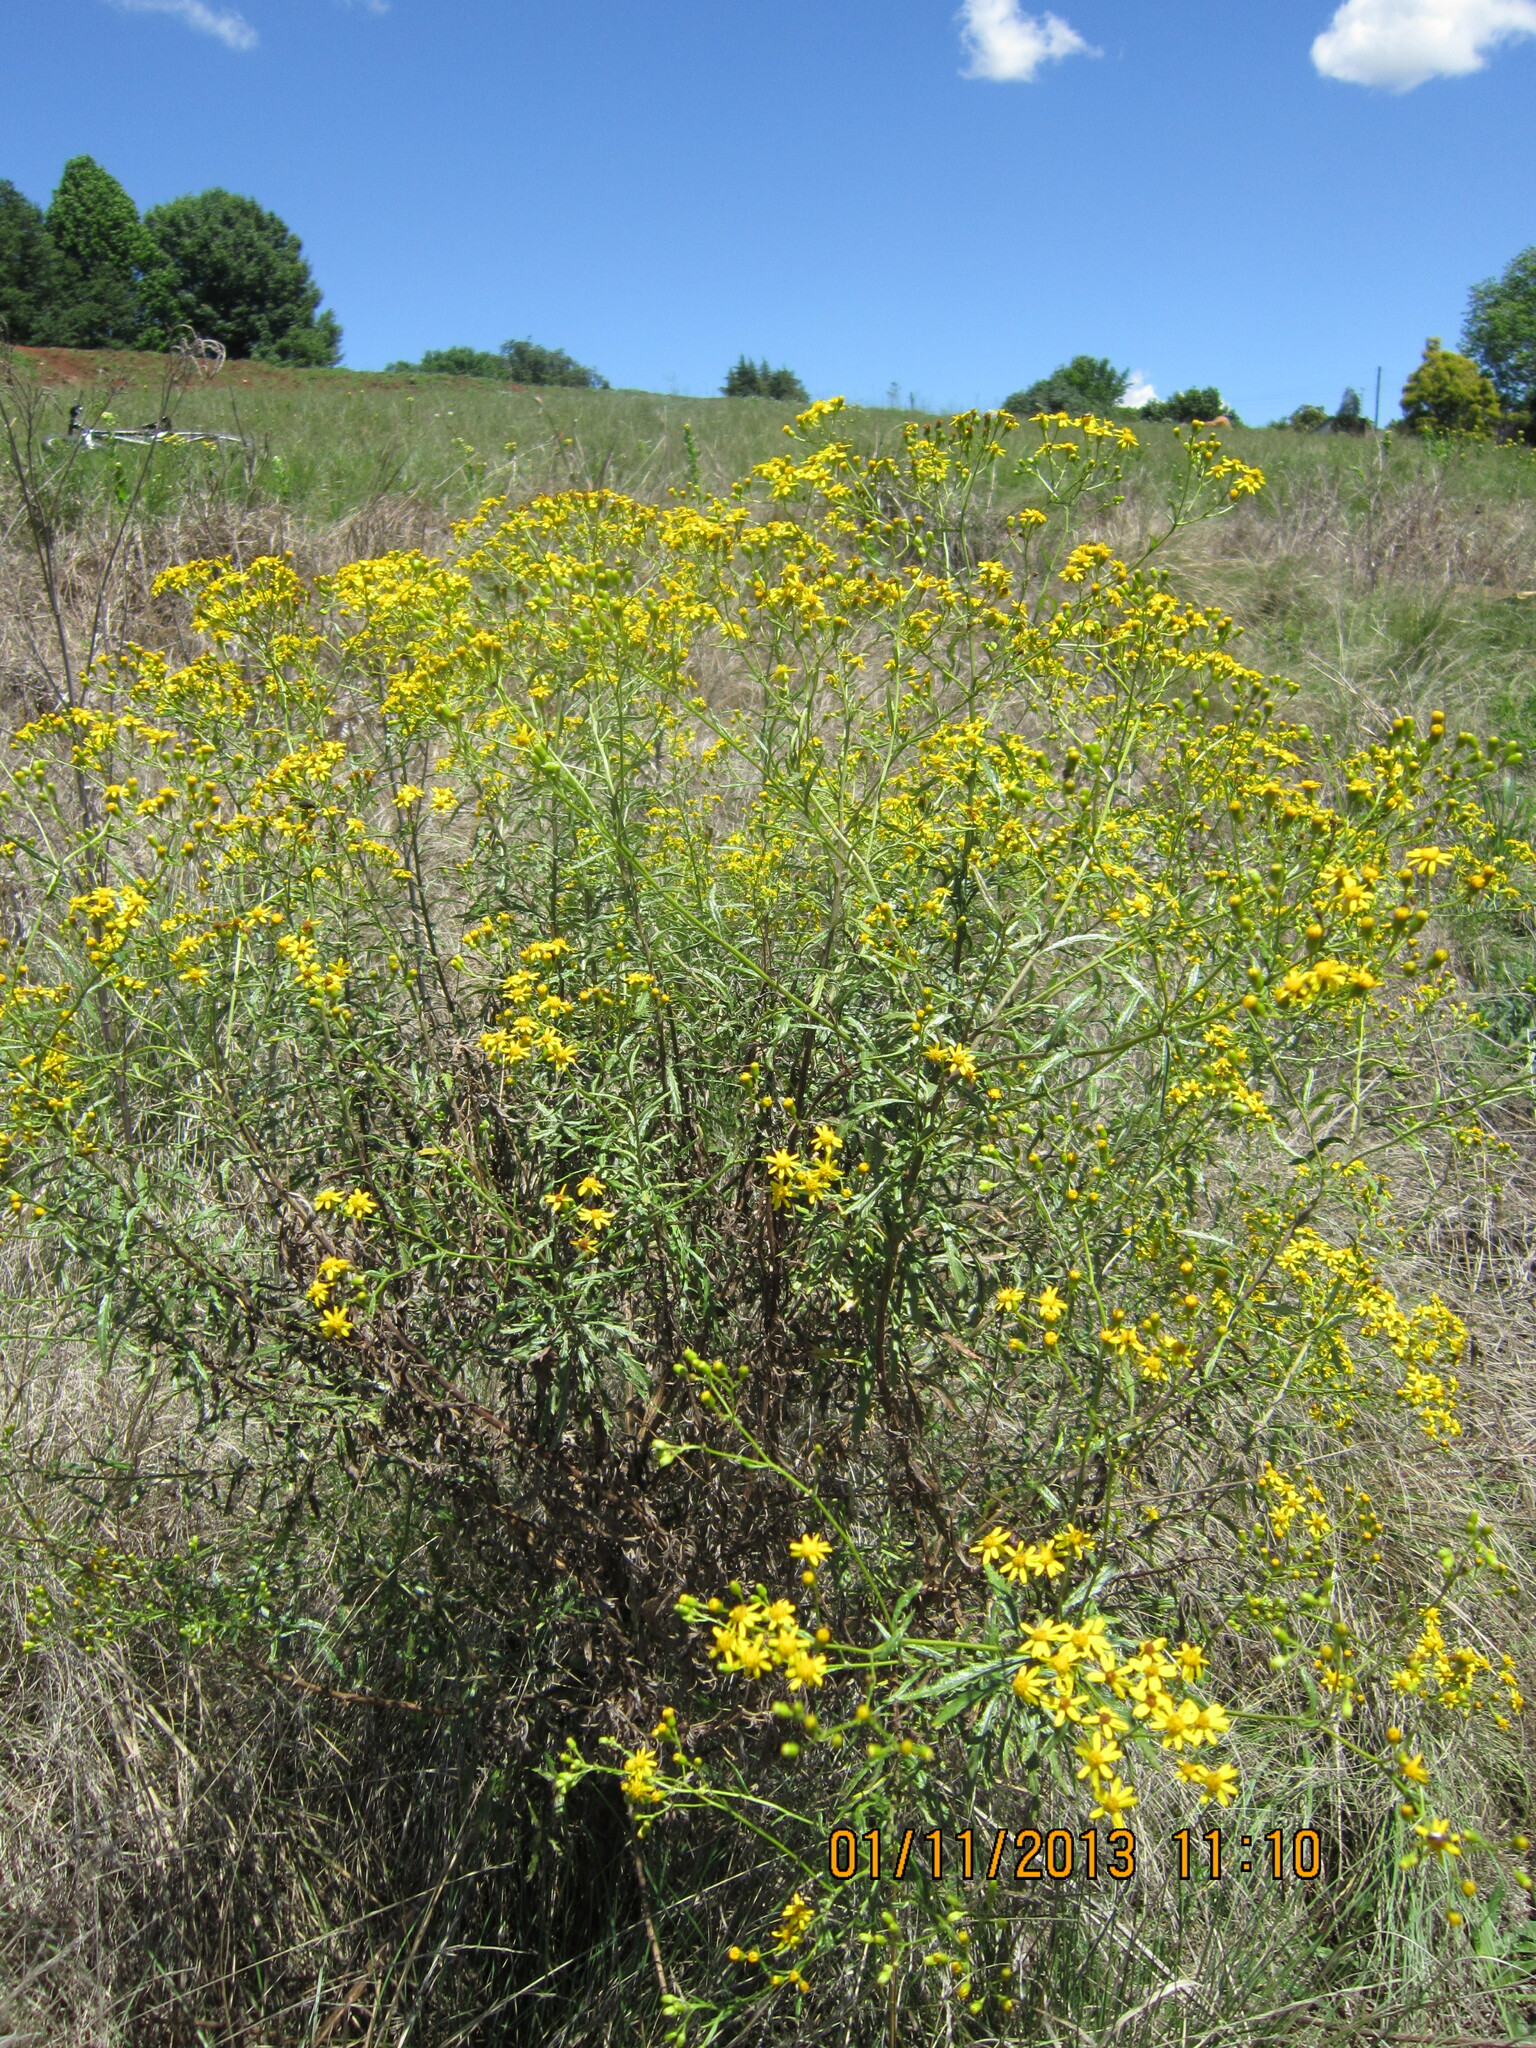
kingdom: Plantae
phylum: Tracheophyta
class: Magnoliopsida
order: Asterales
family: Asteraceae
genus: Senecio
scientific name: Senecio polyanthemoides
